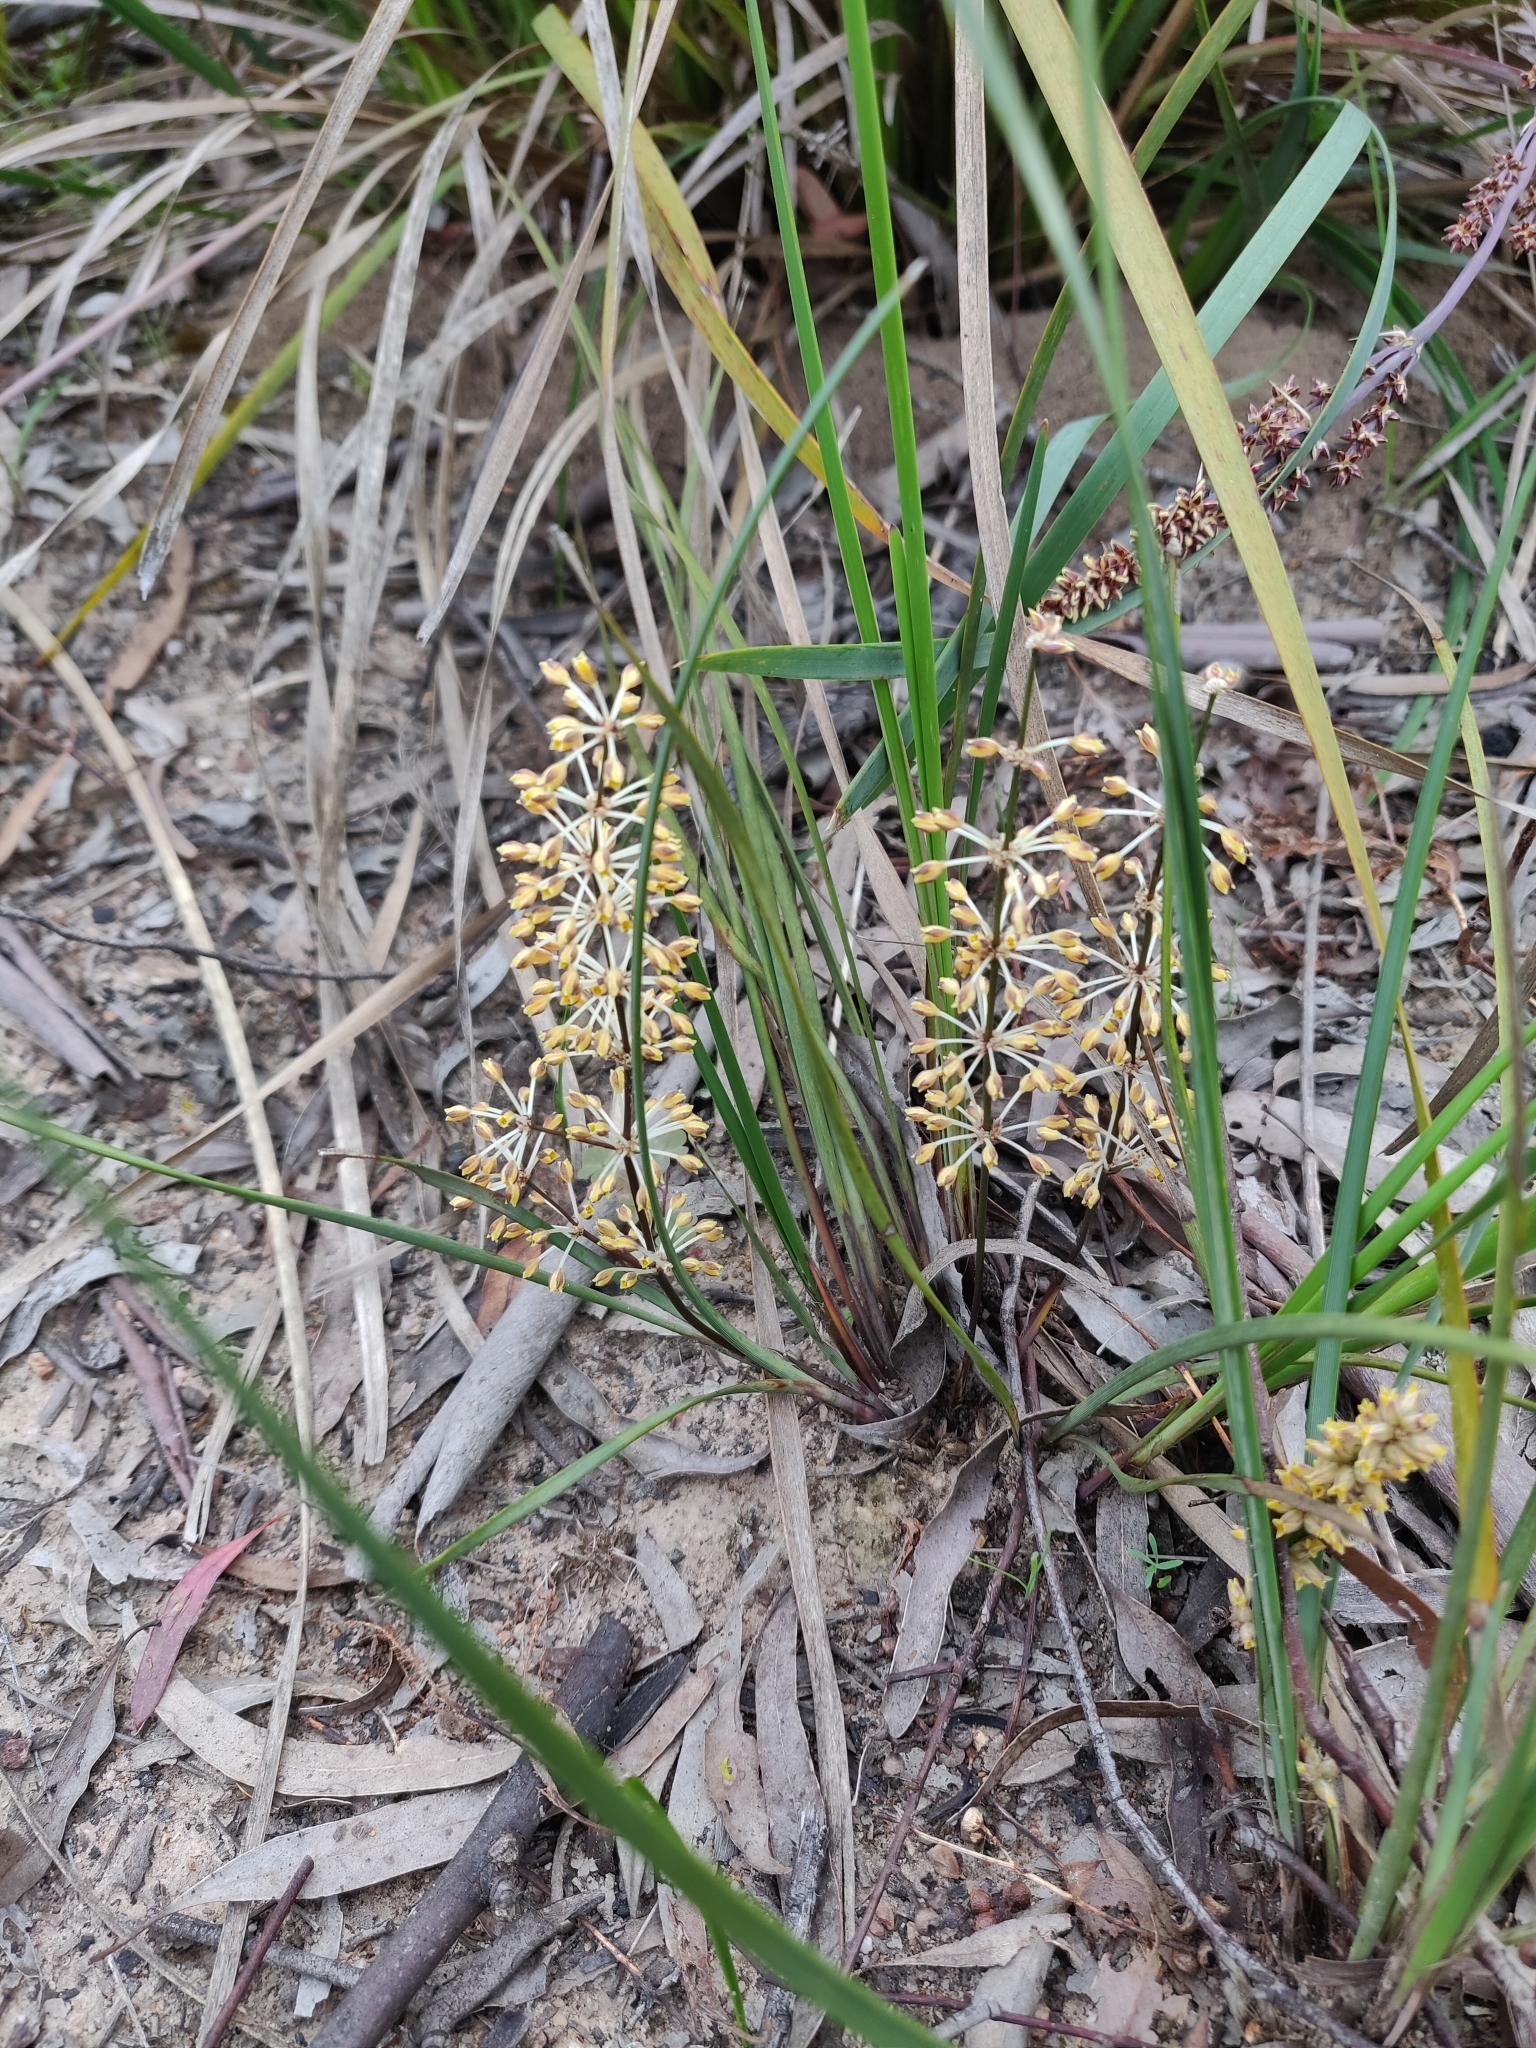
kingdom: Plantae
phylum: Tracheophyta
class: Liliopsida
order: Asparagales
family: Asparagaceae
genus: Lomandra
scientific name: Lomandra multiflora
